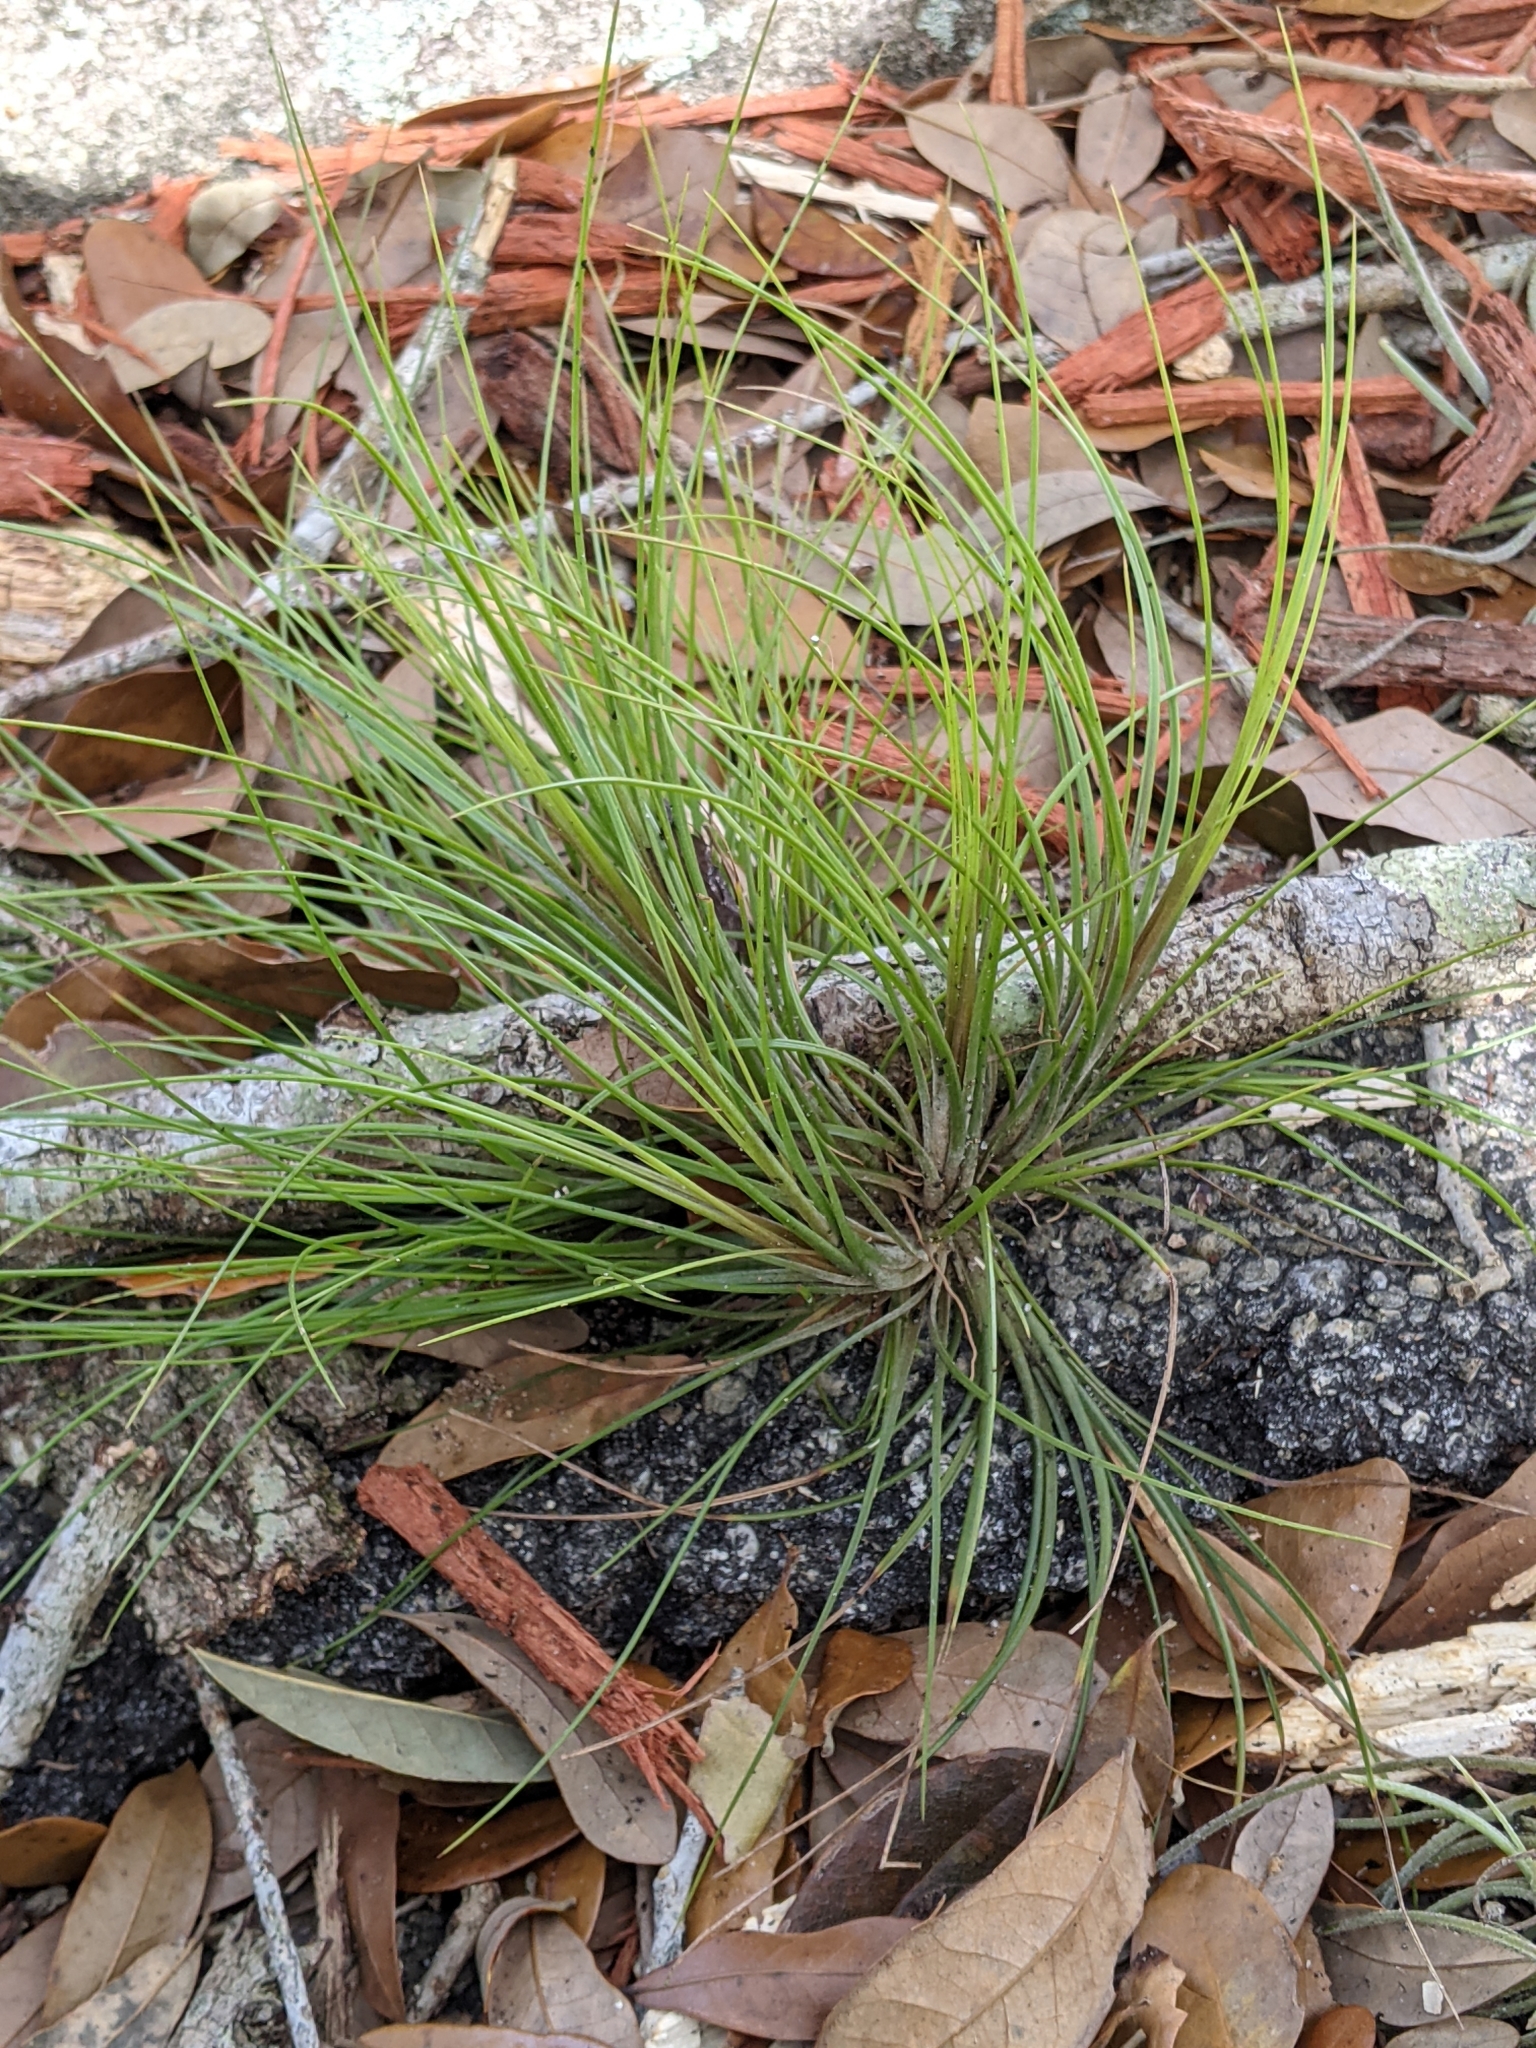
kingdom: Plantae
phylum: Tracheophyta
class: Liliopsida
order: Poales
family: Bromeliaceae
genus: Tillandsia
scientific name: Tillandsia setacea
